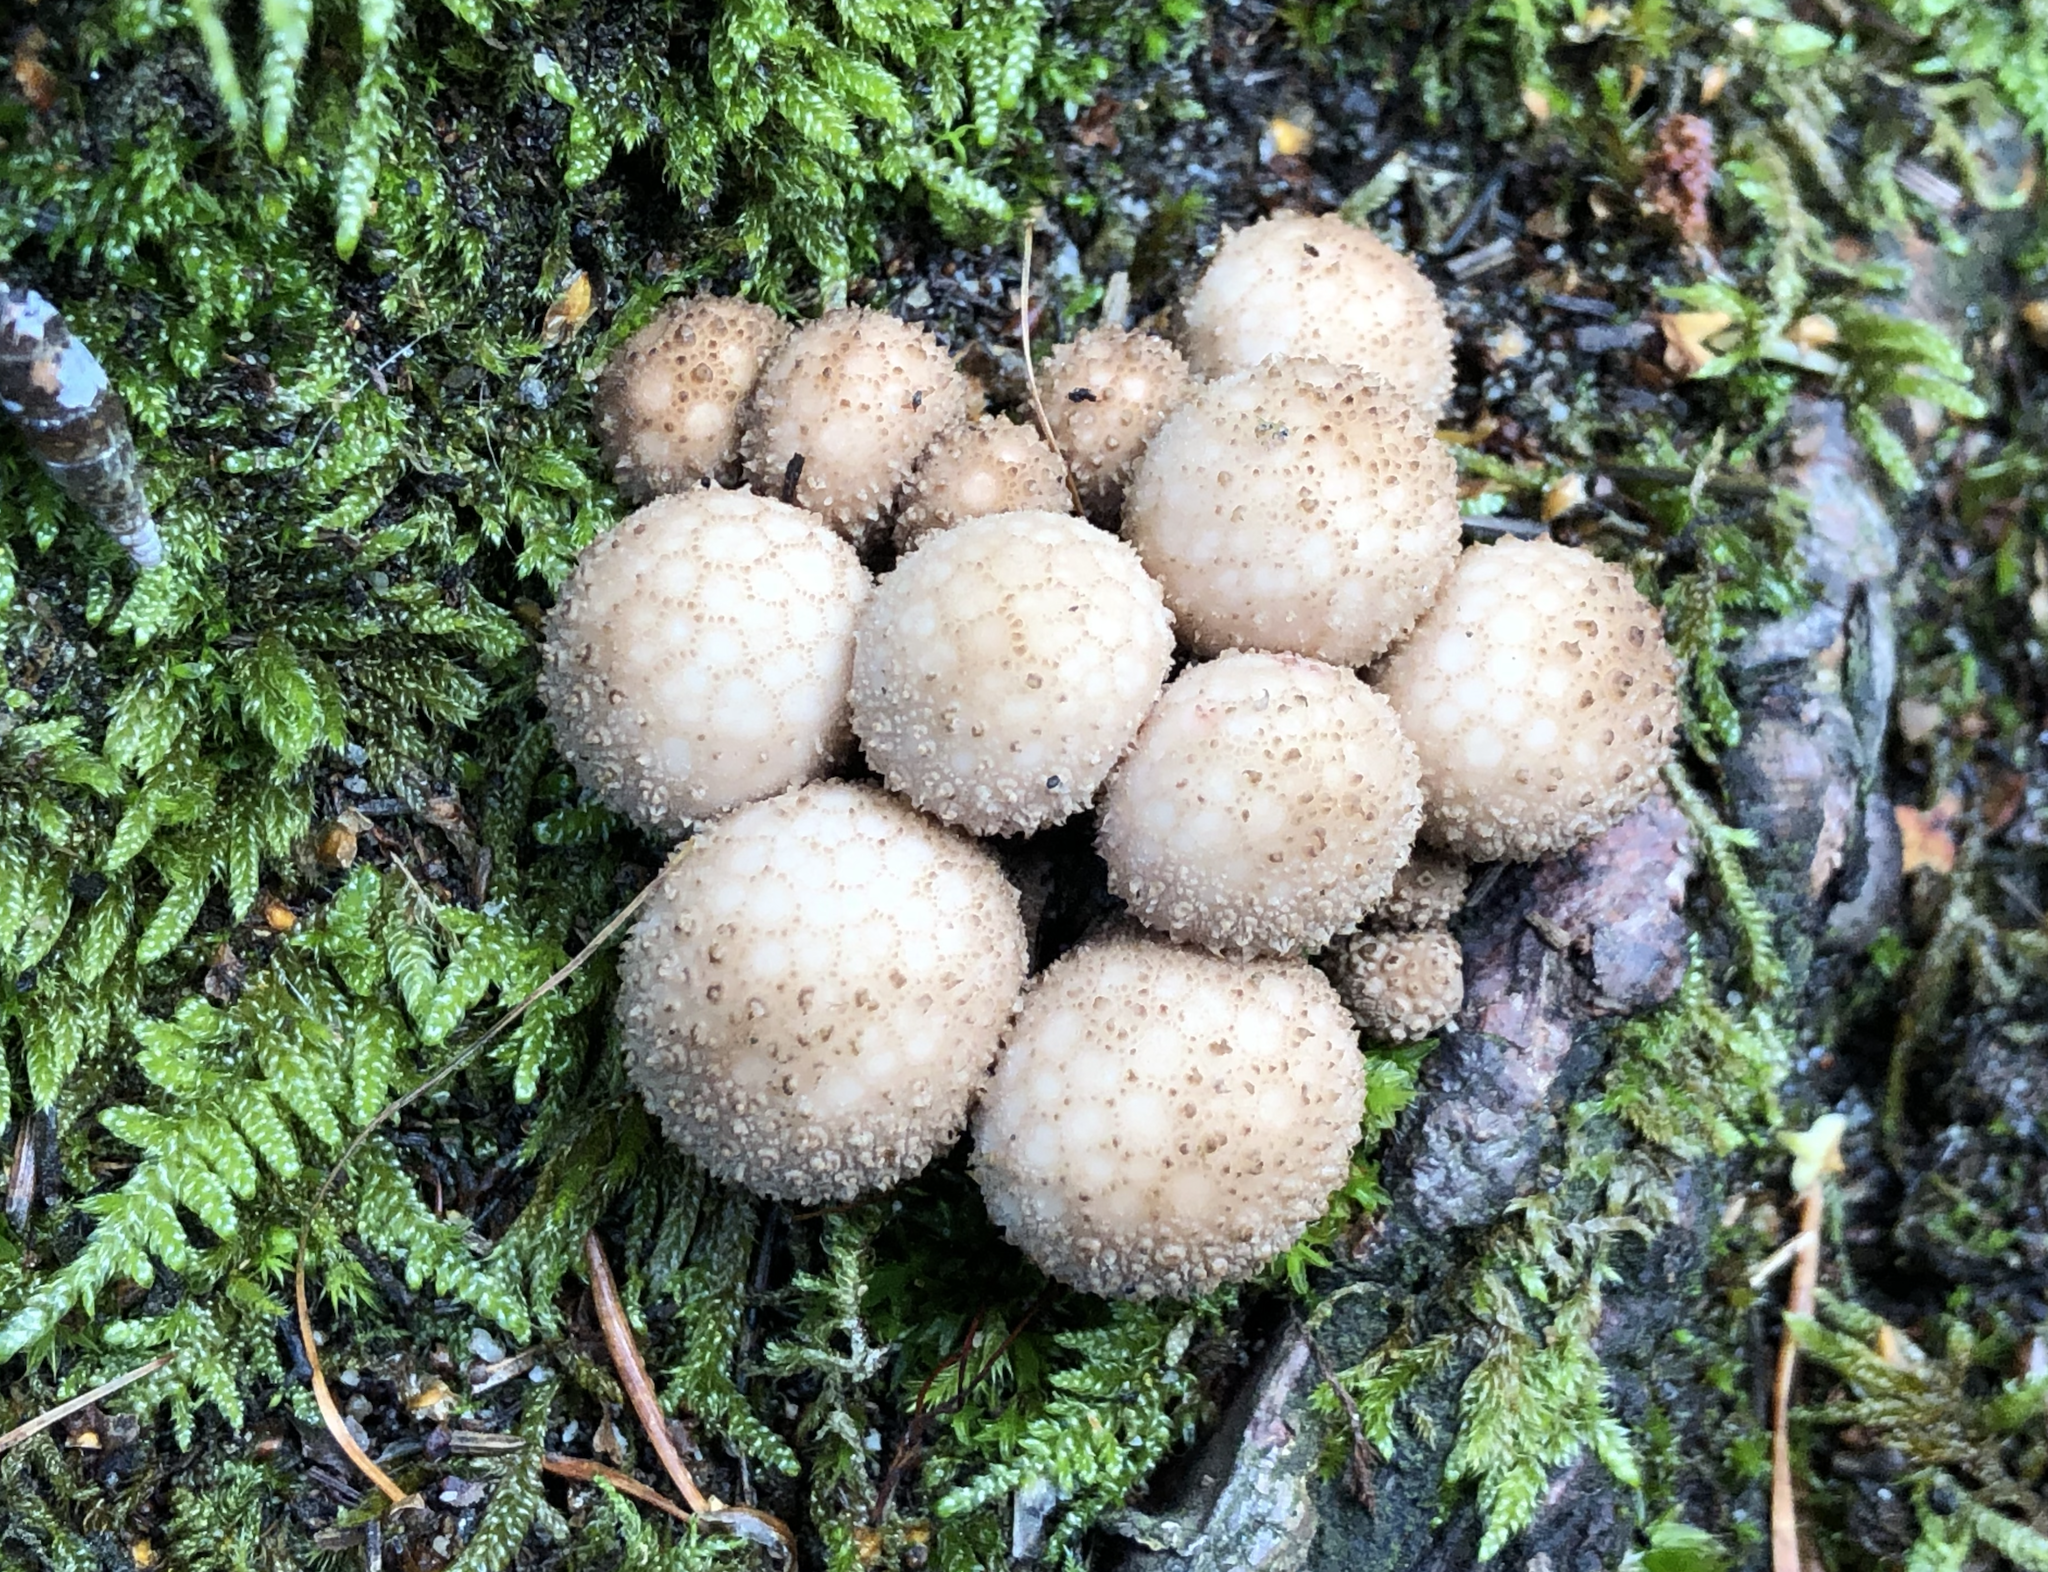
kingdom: Fungi
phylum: Basidiomycota
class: Agaricomycetes
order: Agaricales
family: Lycoperdaceae
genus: Lycoperdon
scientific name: Lycoperdon perlatum
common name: Common puffball
